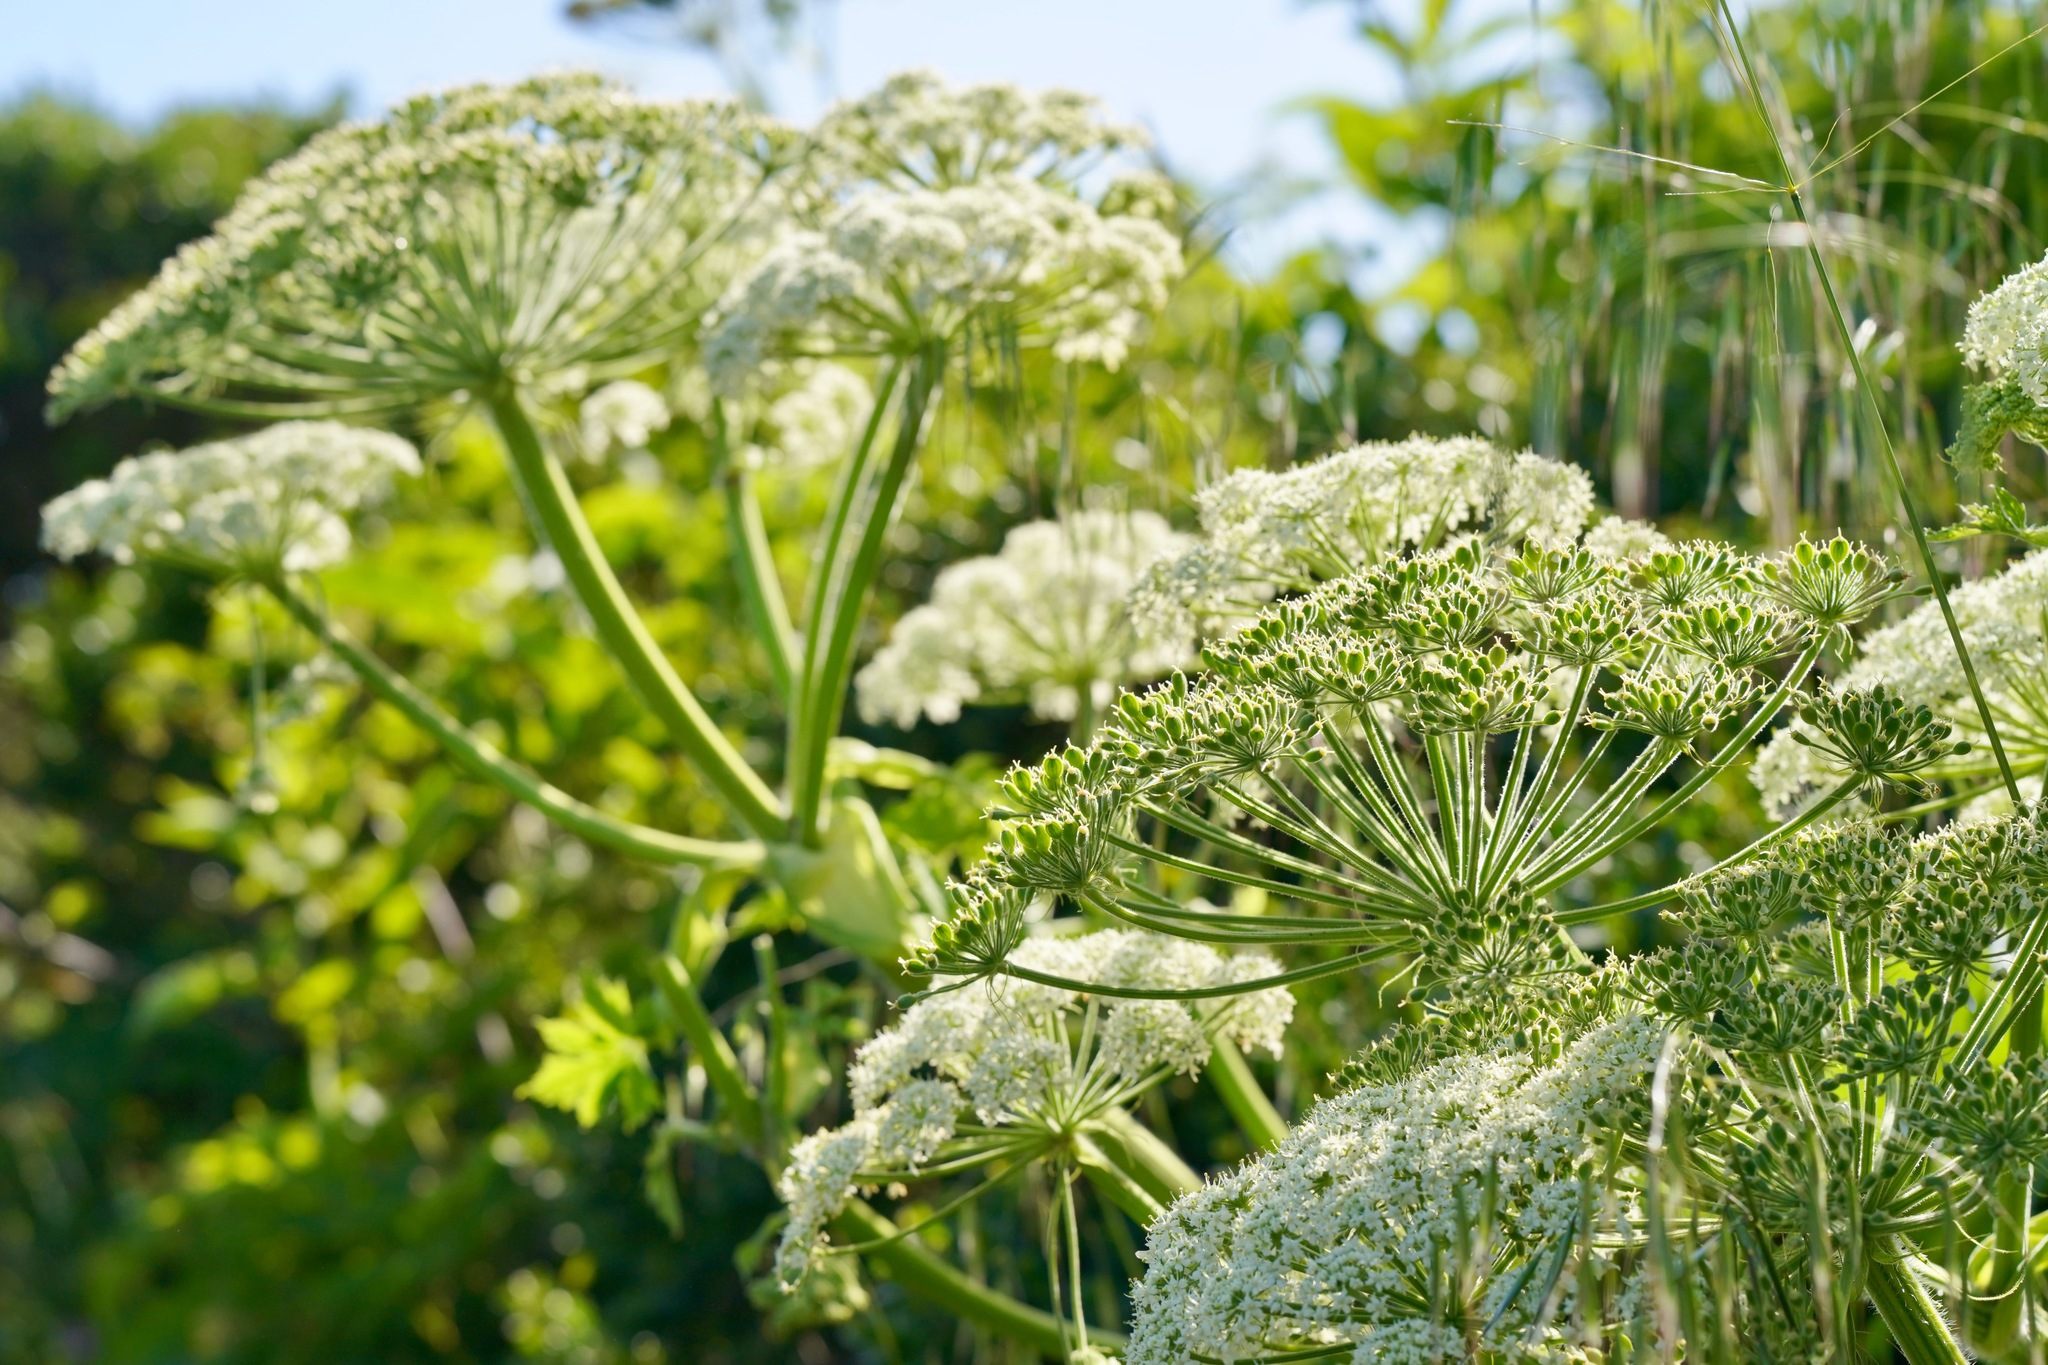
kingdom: Plantae
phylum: Tracheophyta
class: Magnoliopsida
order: Apiales
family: Apiaceae
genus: Heracleum
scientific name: Heracleum maximum
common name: American cow parsnip
